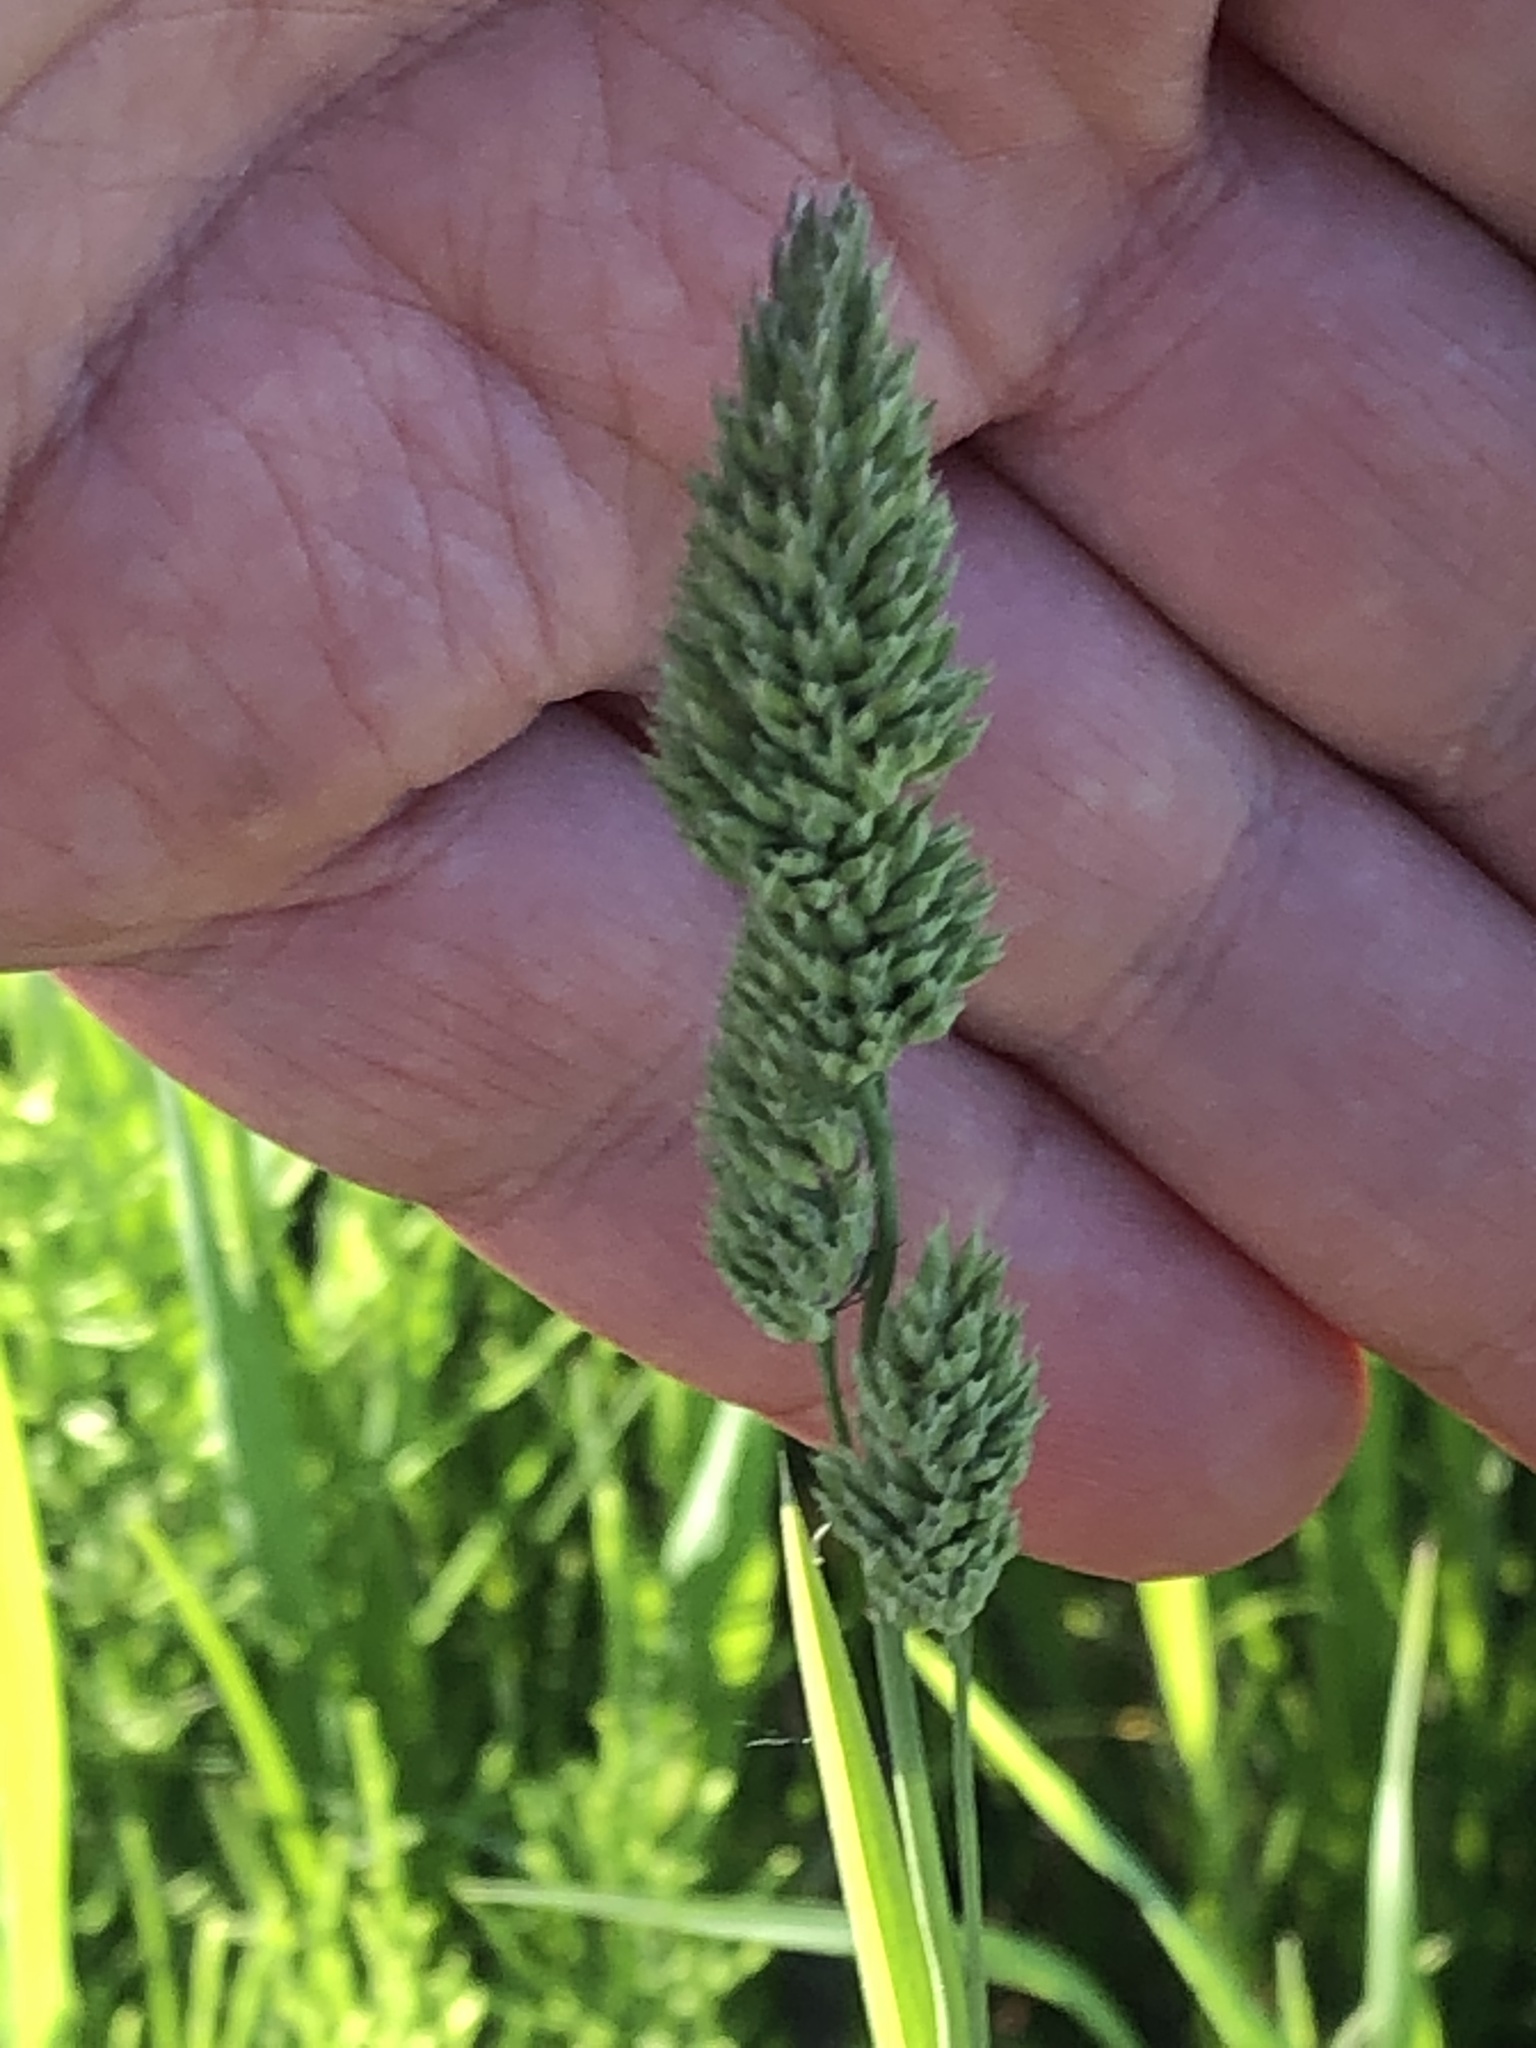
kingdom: Plantae
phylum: Tracheophyta
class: Liliopsida
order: Poales
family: Poaceae
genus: Dactylis
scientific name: Dactylis glomerata
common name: Orchardgrass
